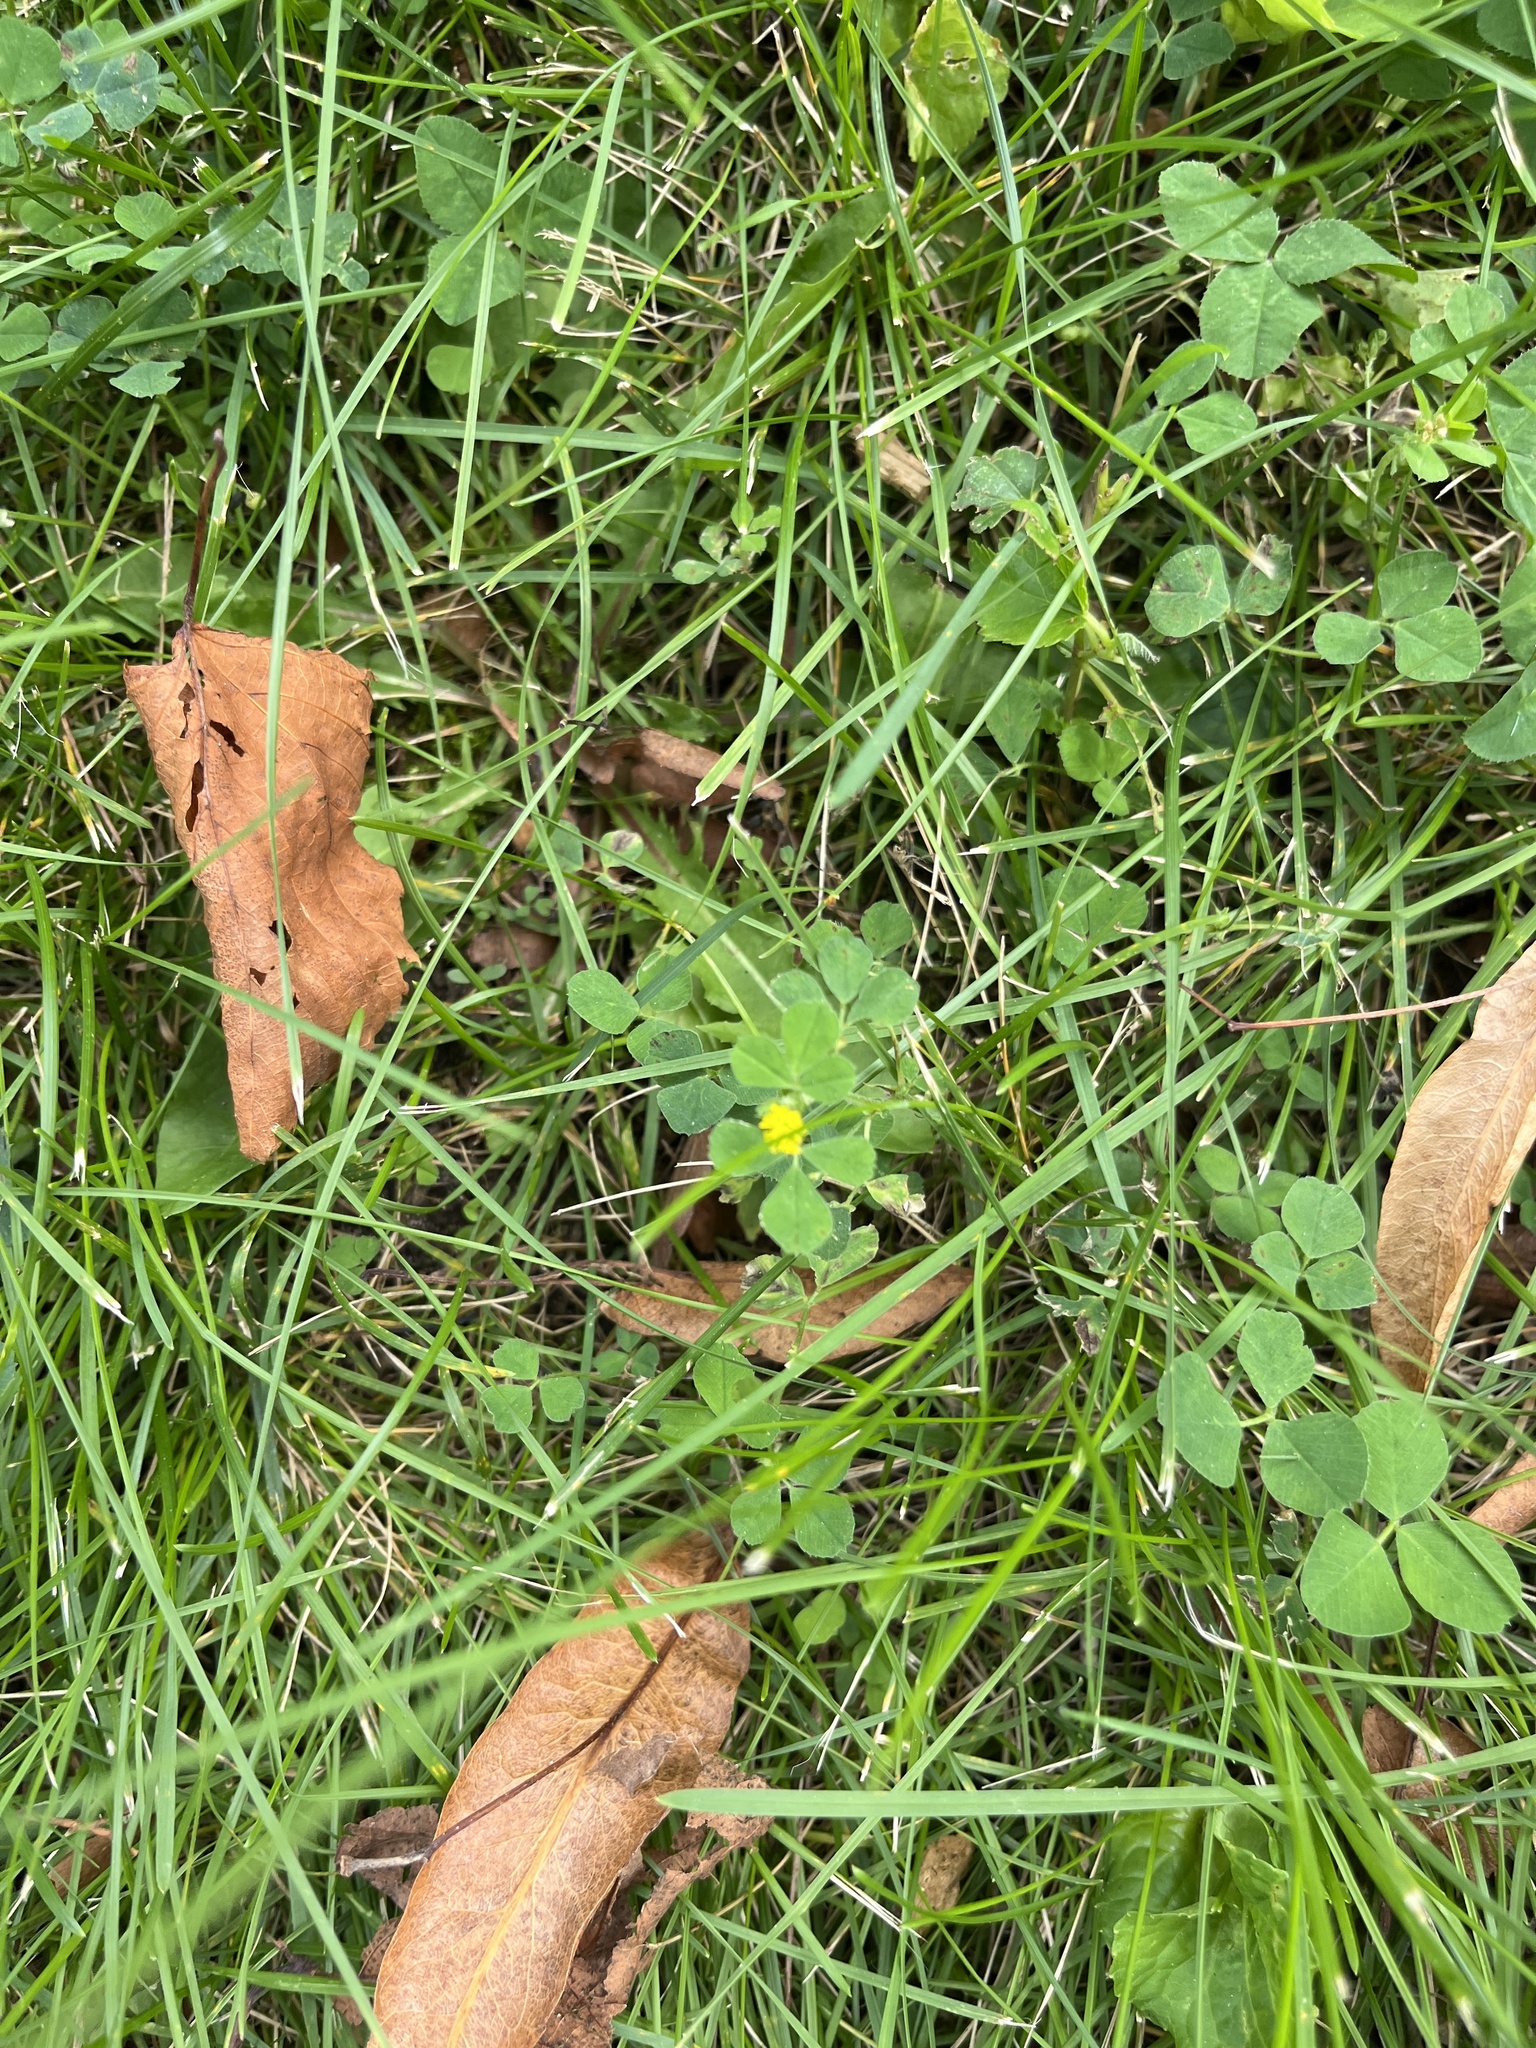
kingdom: Plantae
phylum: Tracheophyta
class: Magnoliopsida
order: Fabales
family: Fabaceae
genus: Medicago
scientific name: Medicago lupulina
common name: Black medick
